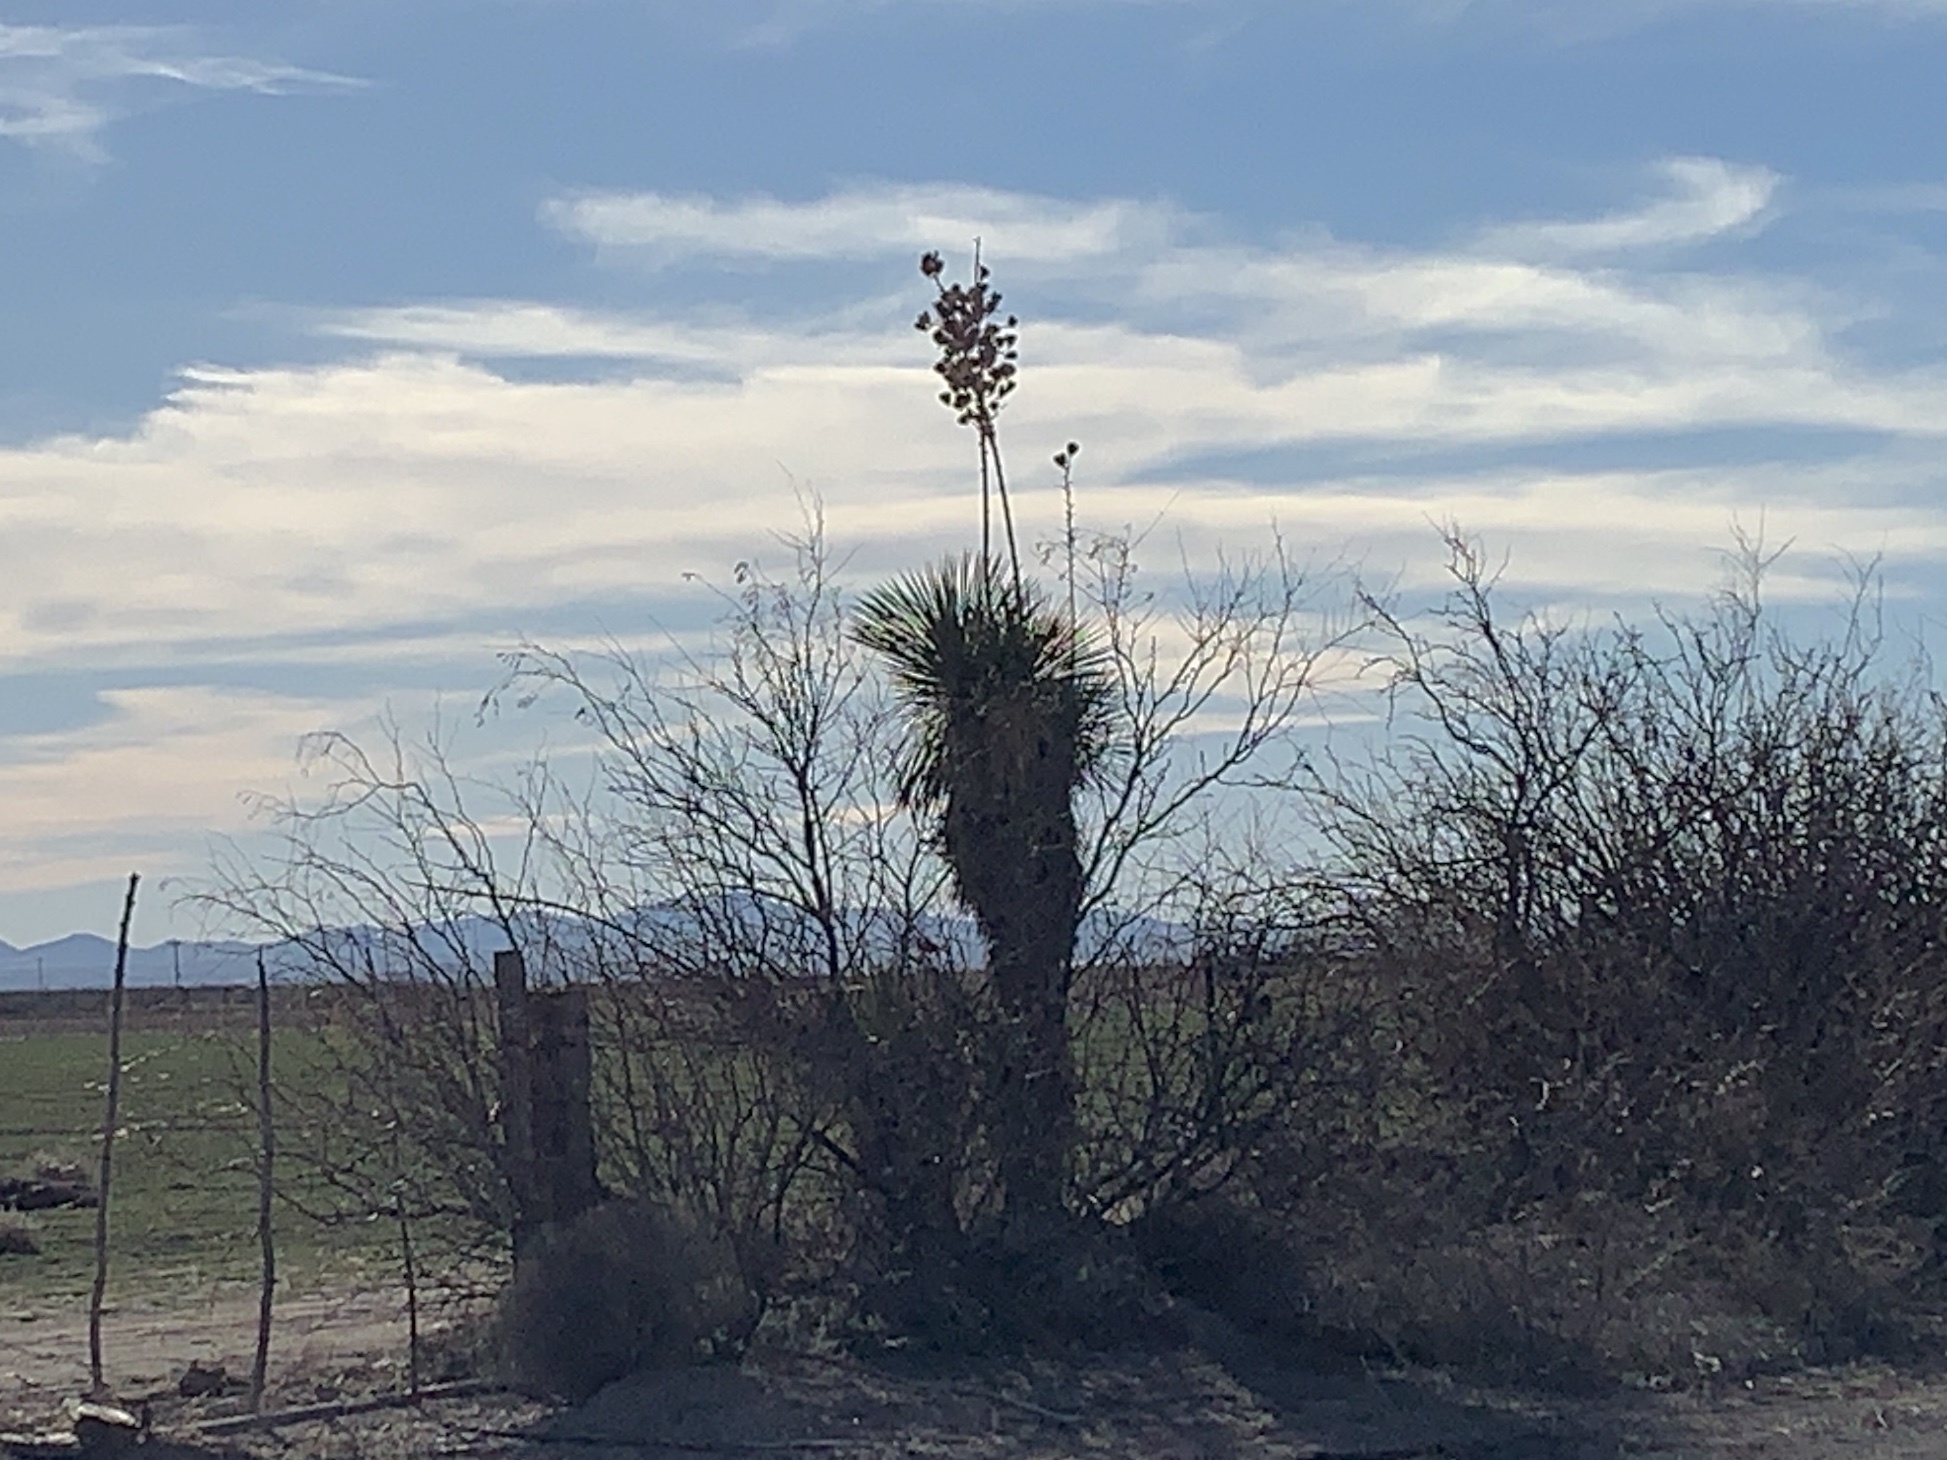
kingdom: Plantae
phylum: Tracheophyta
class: Liliopsida
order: Asparagales
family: Asparagaceae
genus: Yucca
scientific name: Yucca elata
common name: Palmella
